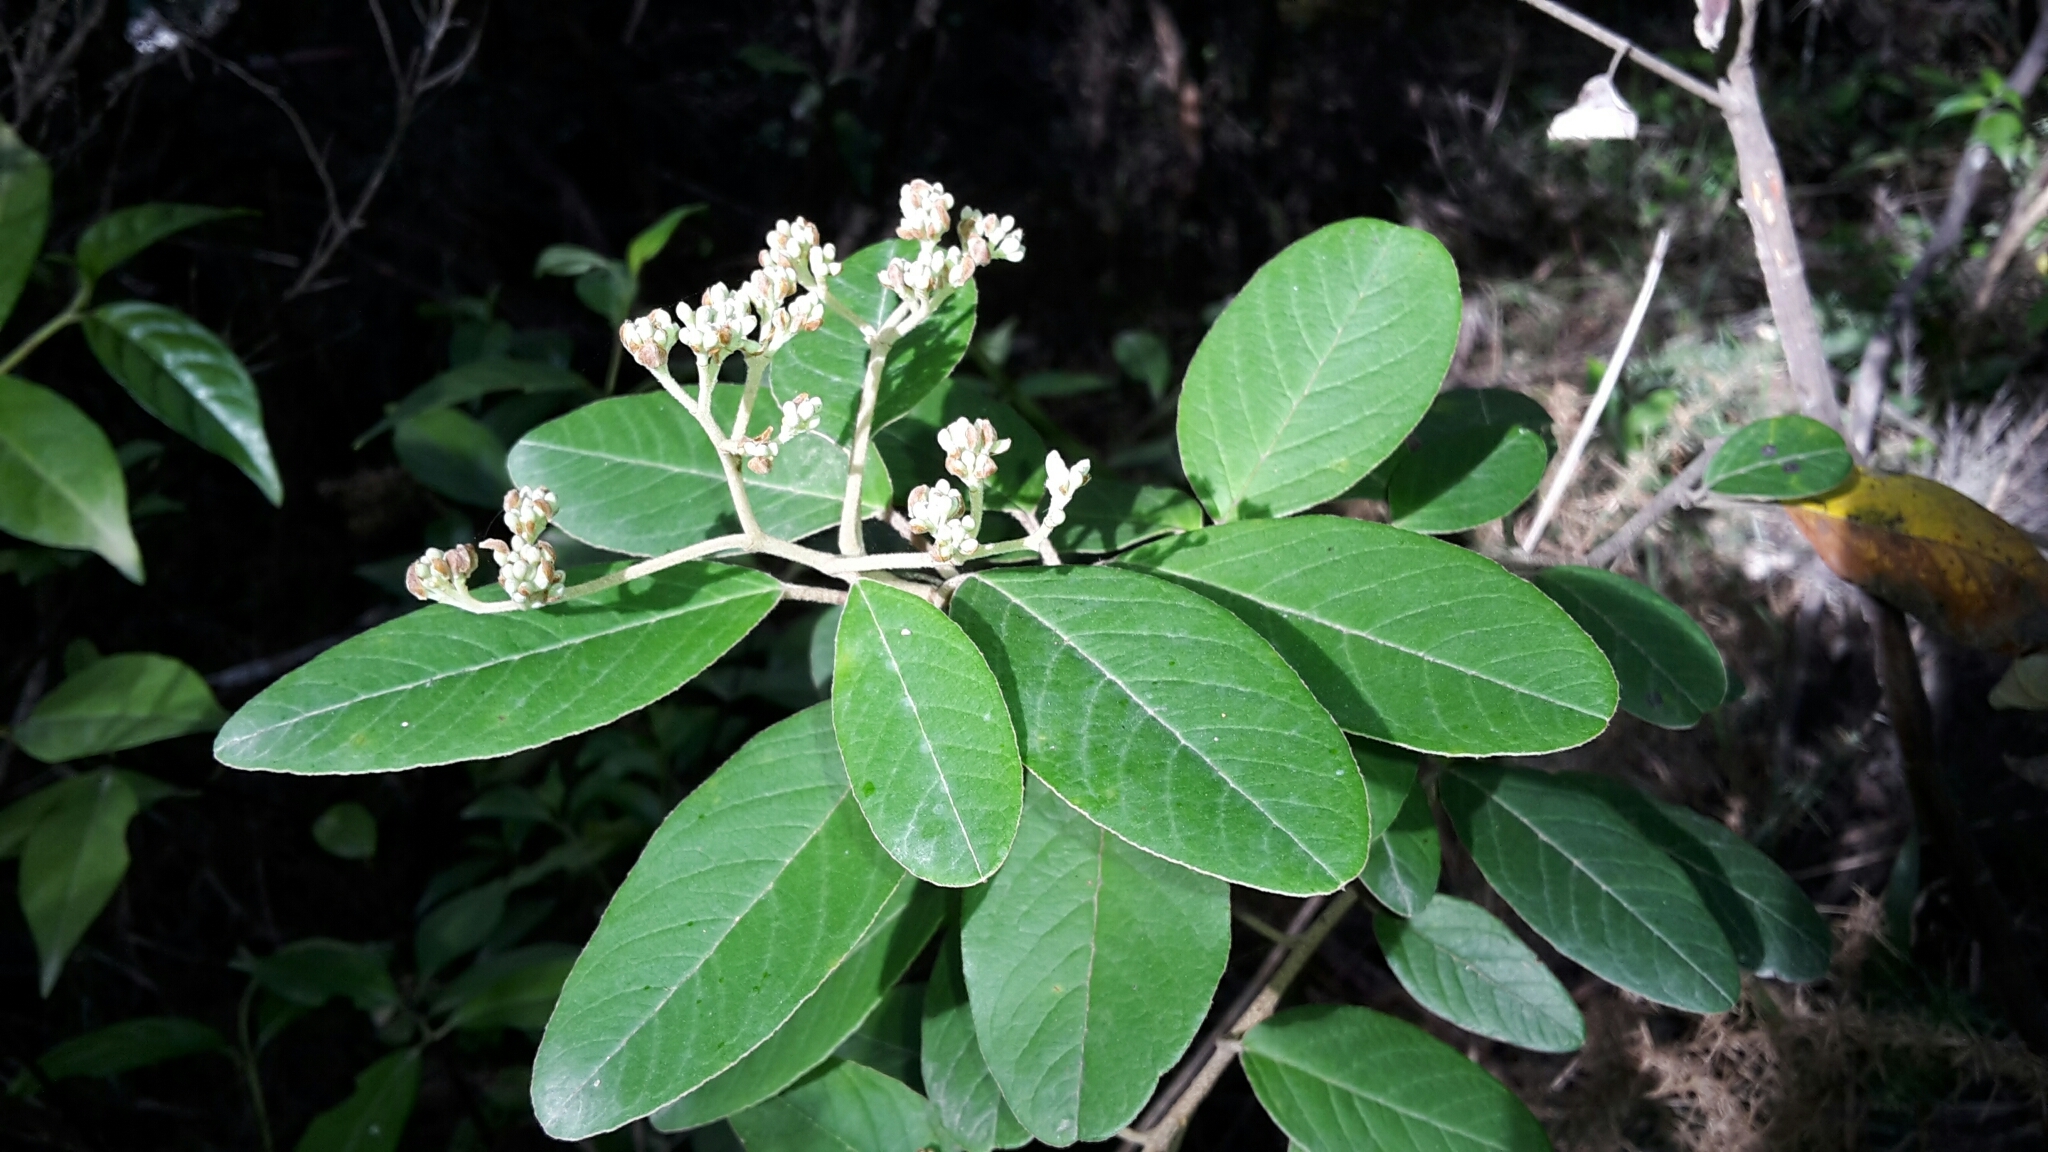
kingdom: Plantae
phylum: Tracheophyta
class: Magnoliopsida
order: Rosales
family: Rhamnaceae
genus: Pomaderris
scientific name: Pomaderris kumeraho
